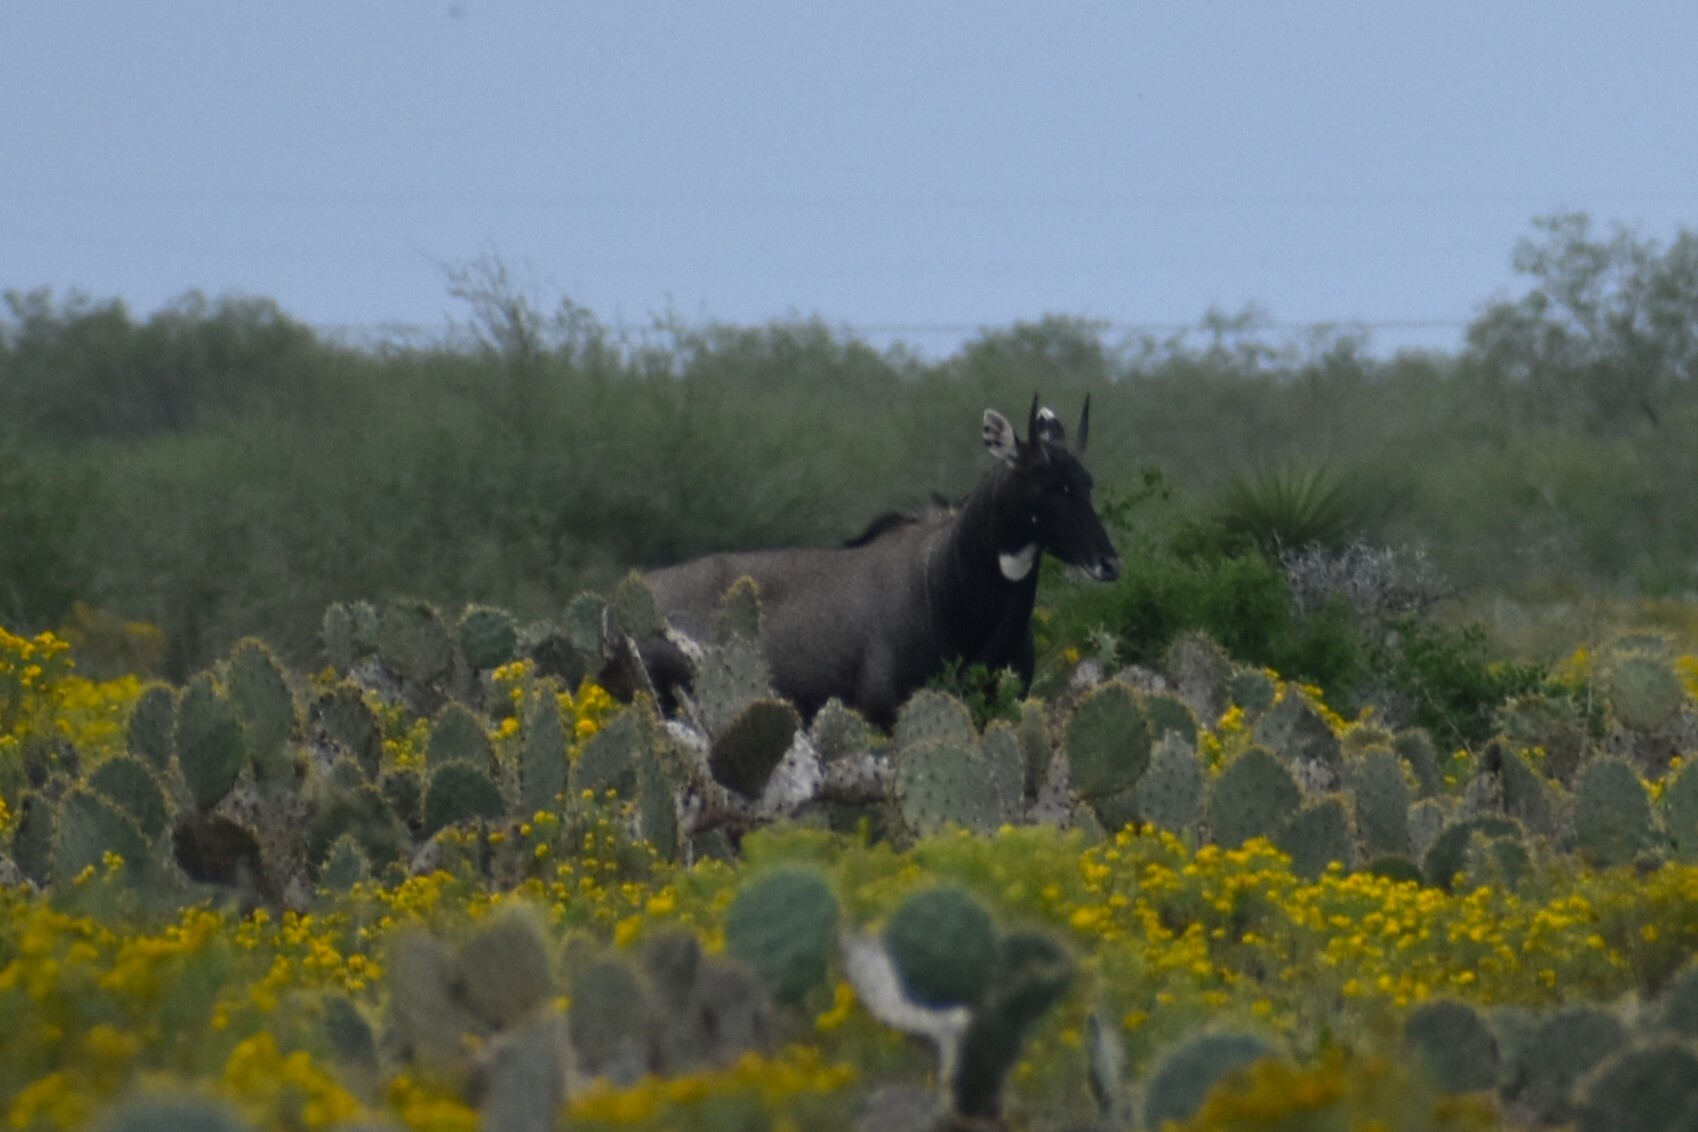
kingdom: Animalia
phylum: Chordata
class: Mammalia
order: Artiodactyla
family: Bovidae
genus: Boselaphus
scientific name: Boselaphus tragocamelus
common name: Nilgai
